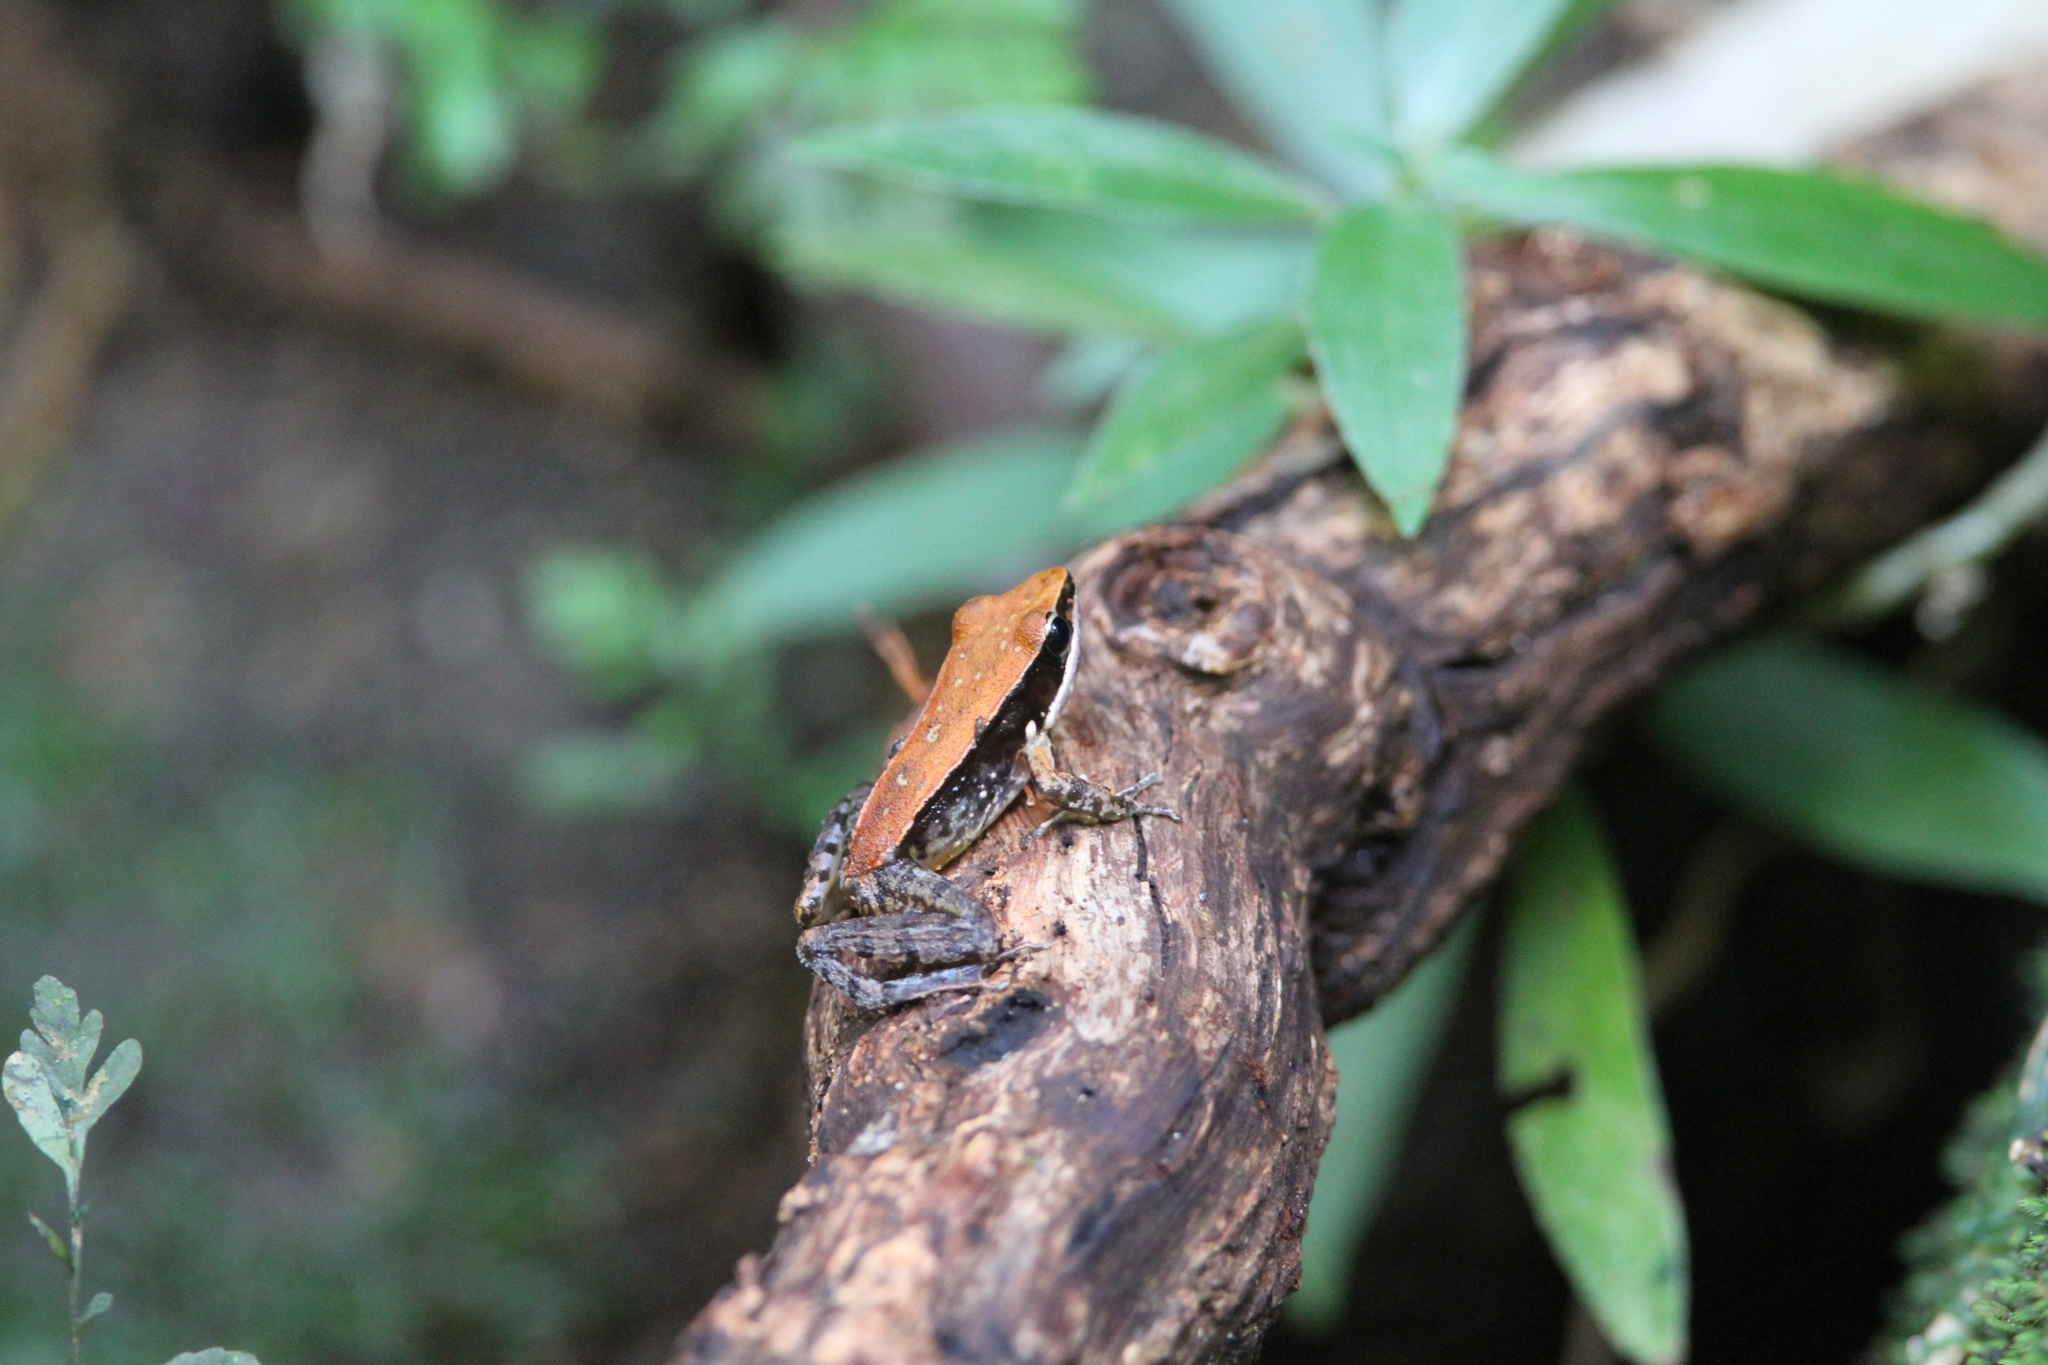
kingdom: Animalia
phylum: Chordata
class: Amphibia
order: Anura
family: Ranidae
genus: Indosylvirana
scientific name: Indosylvirana serendipi
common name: Sri lankan golden-backed frog
